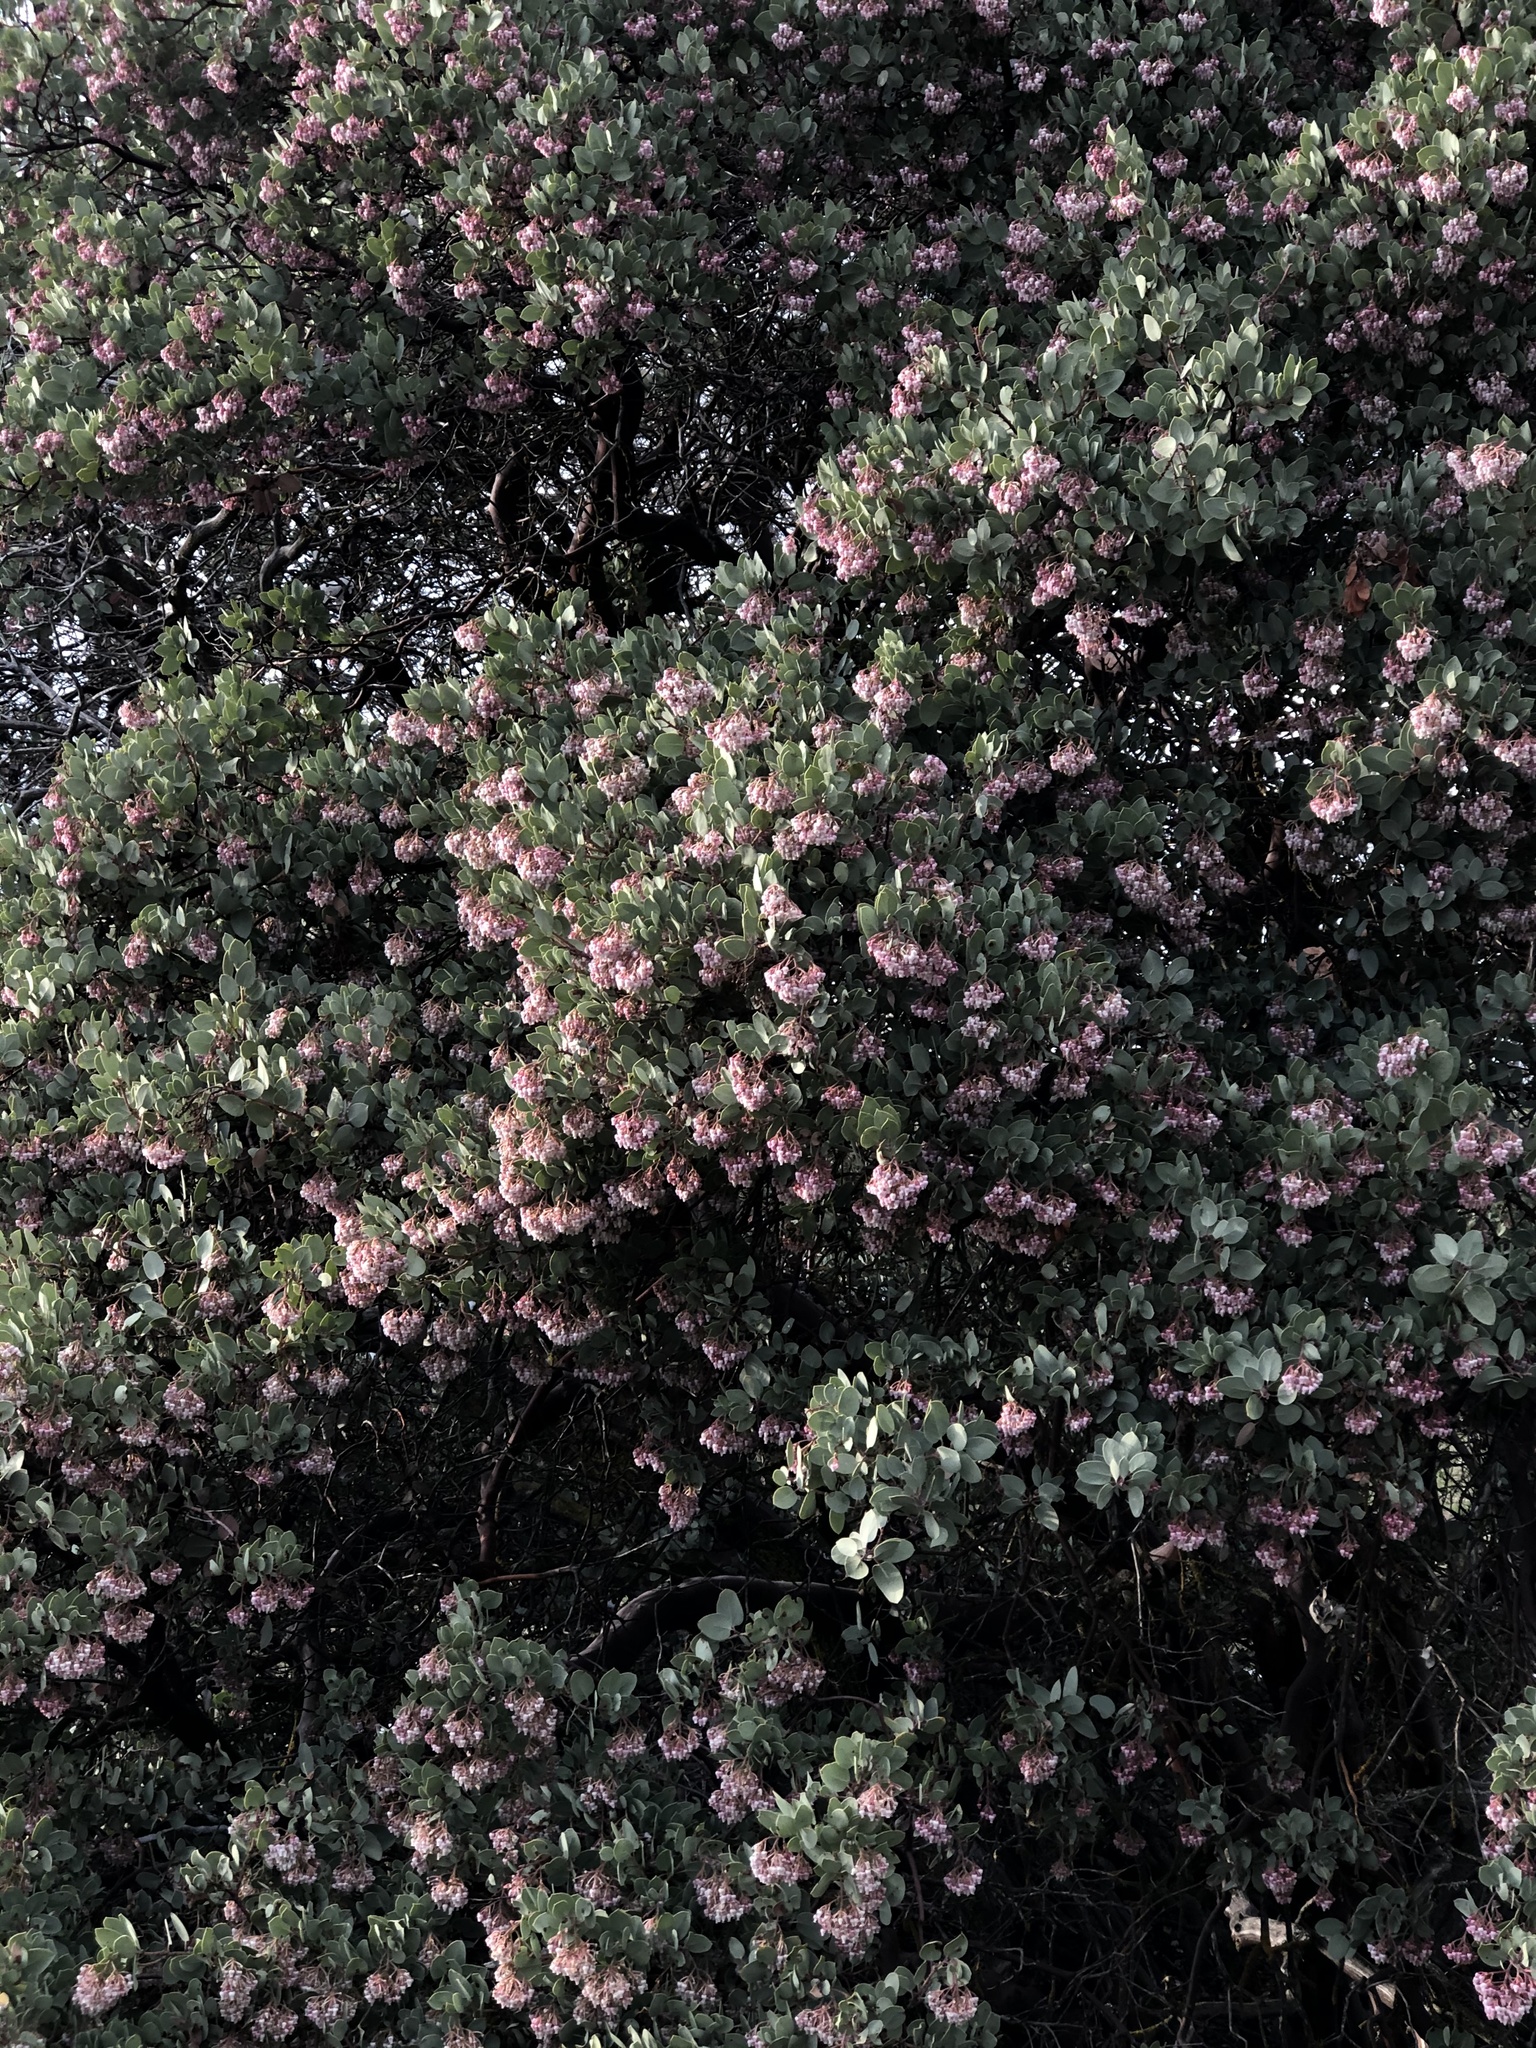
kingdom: Plantae
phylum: Tracheophyta
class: Magnoliopsida
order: Ericales
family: Ericaceae
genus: Arctostaphylos
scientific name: Arctostaphylos viscida
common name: White-leaf manzanita
